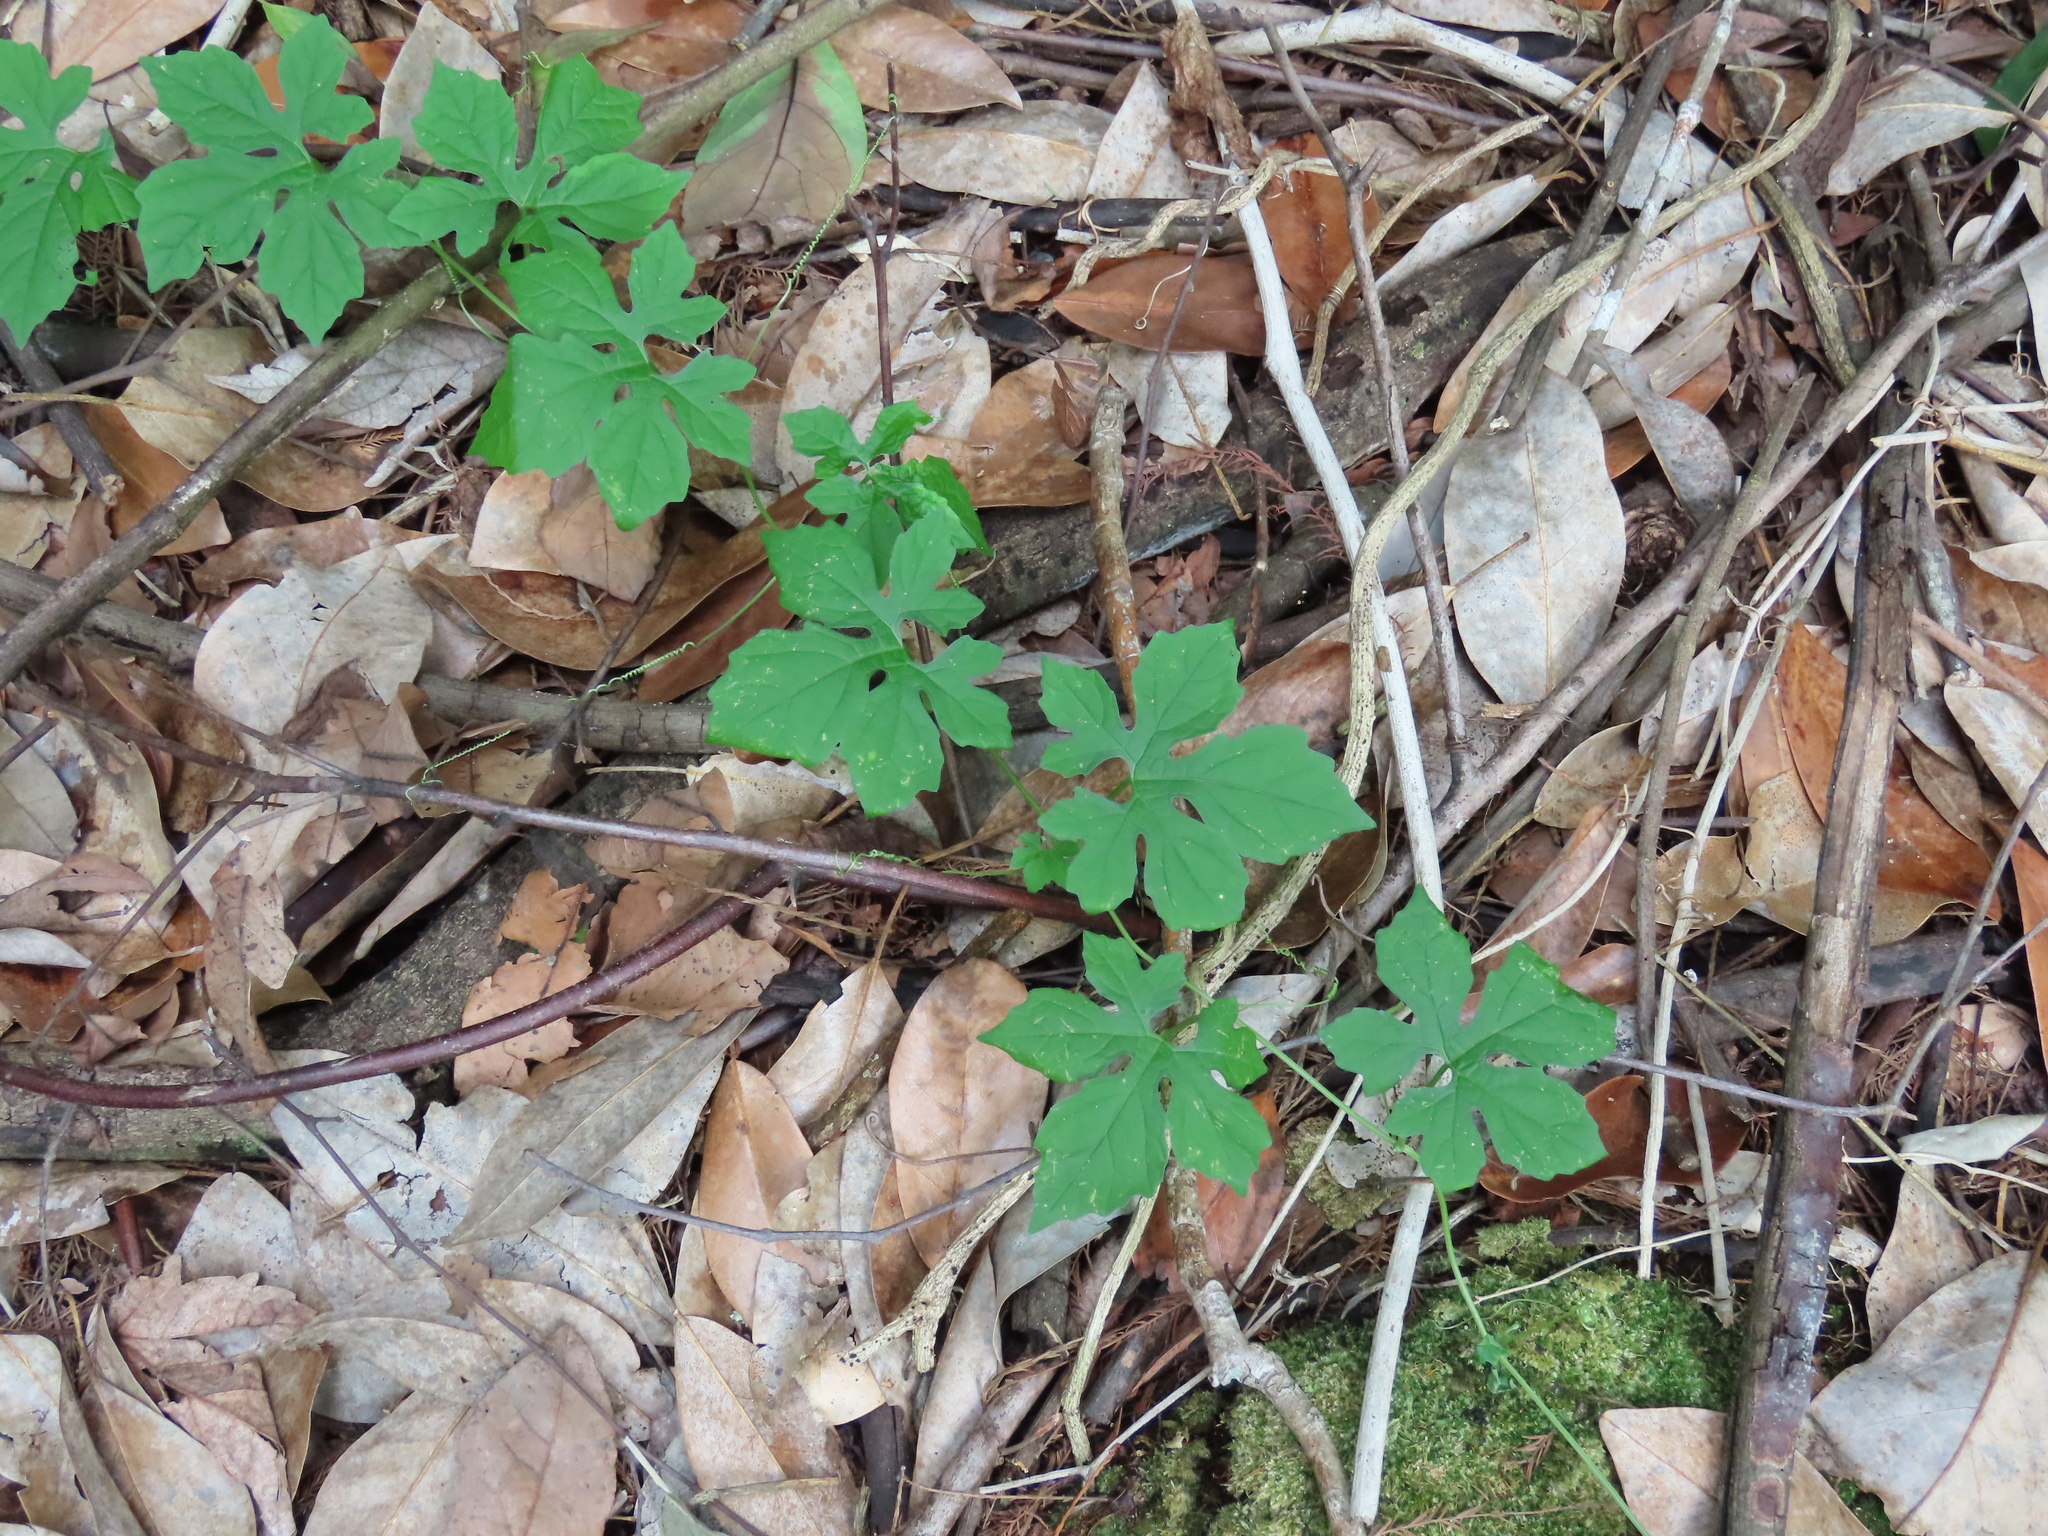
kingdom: Plantae
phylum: Tracheophyta
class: Magnoliopsida
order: Cucurbitales
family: Cucurbitaceae
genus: Momordica
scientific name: Momordica charantia
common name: Balsampear
